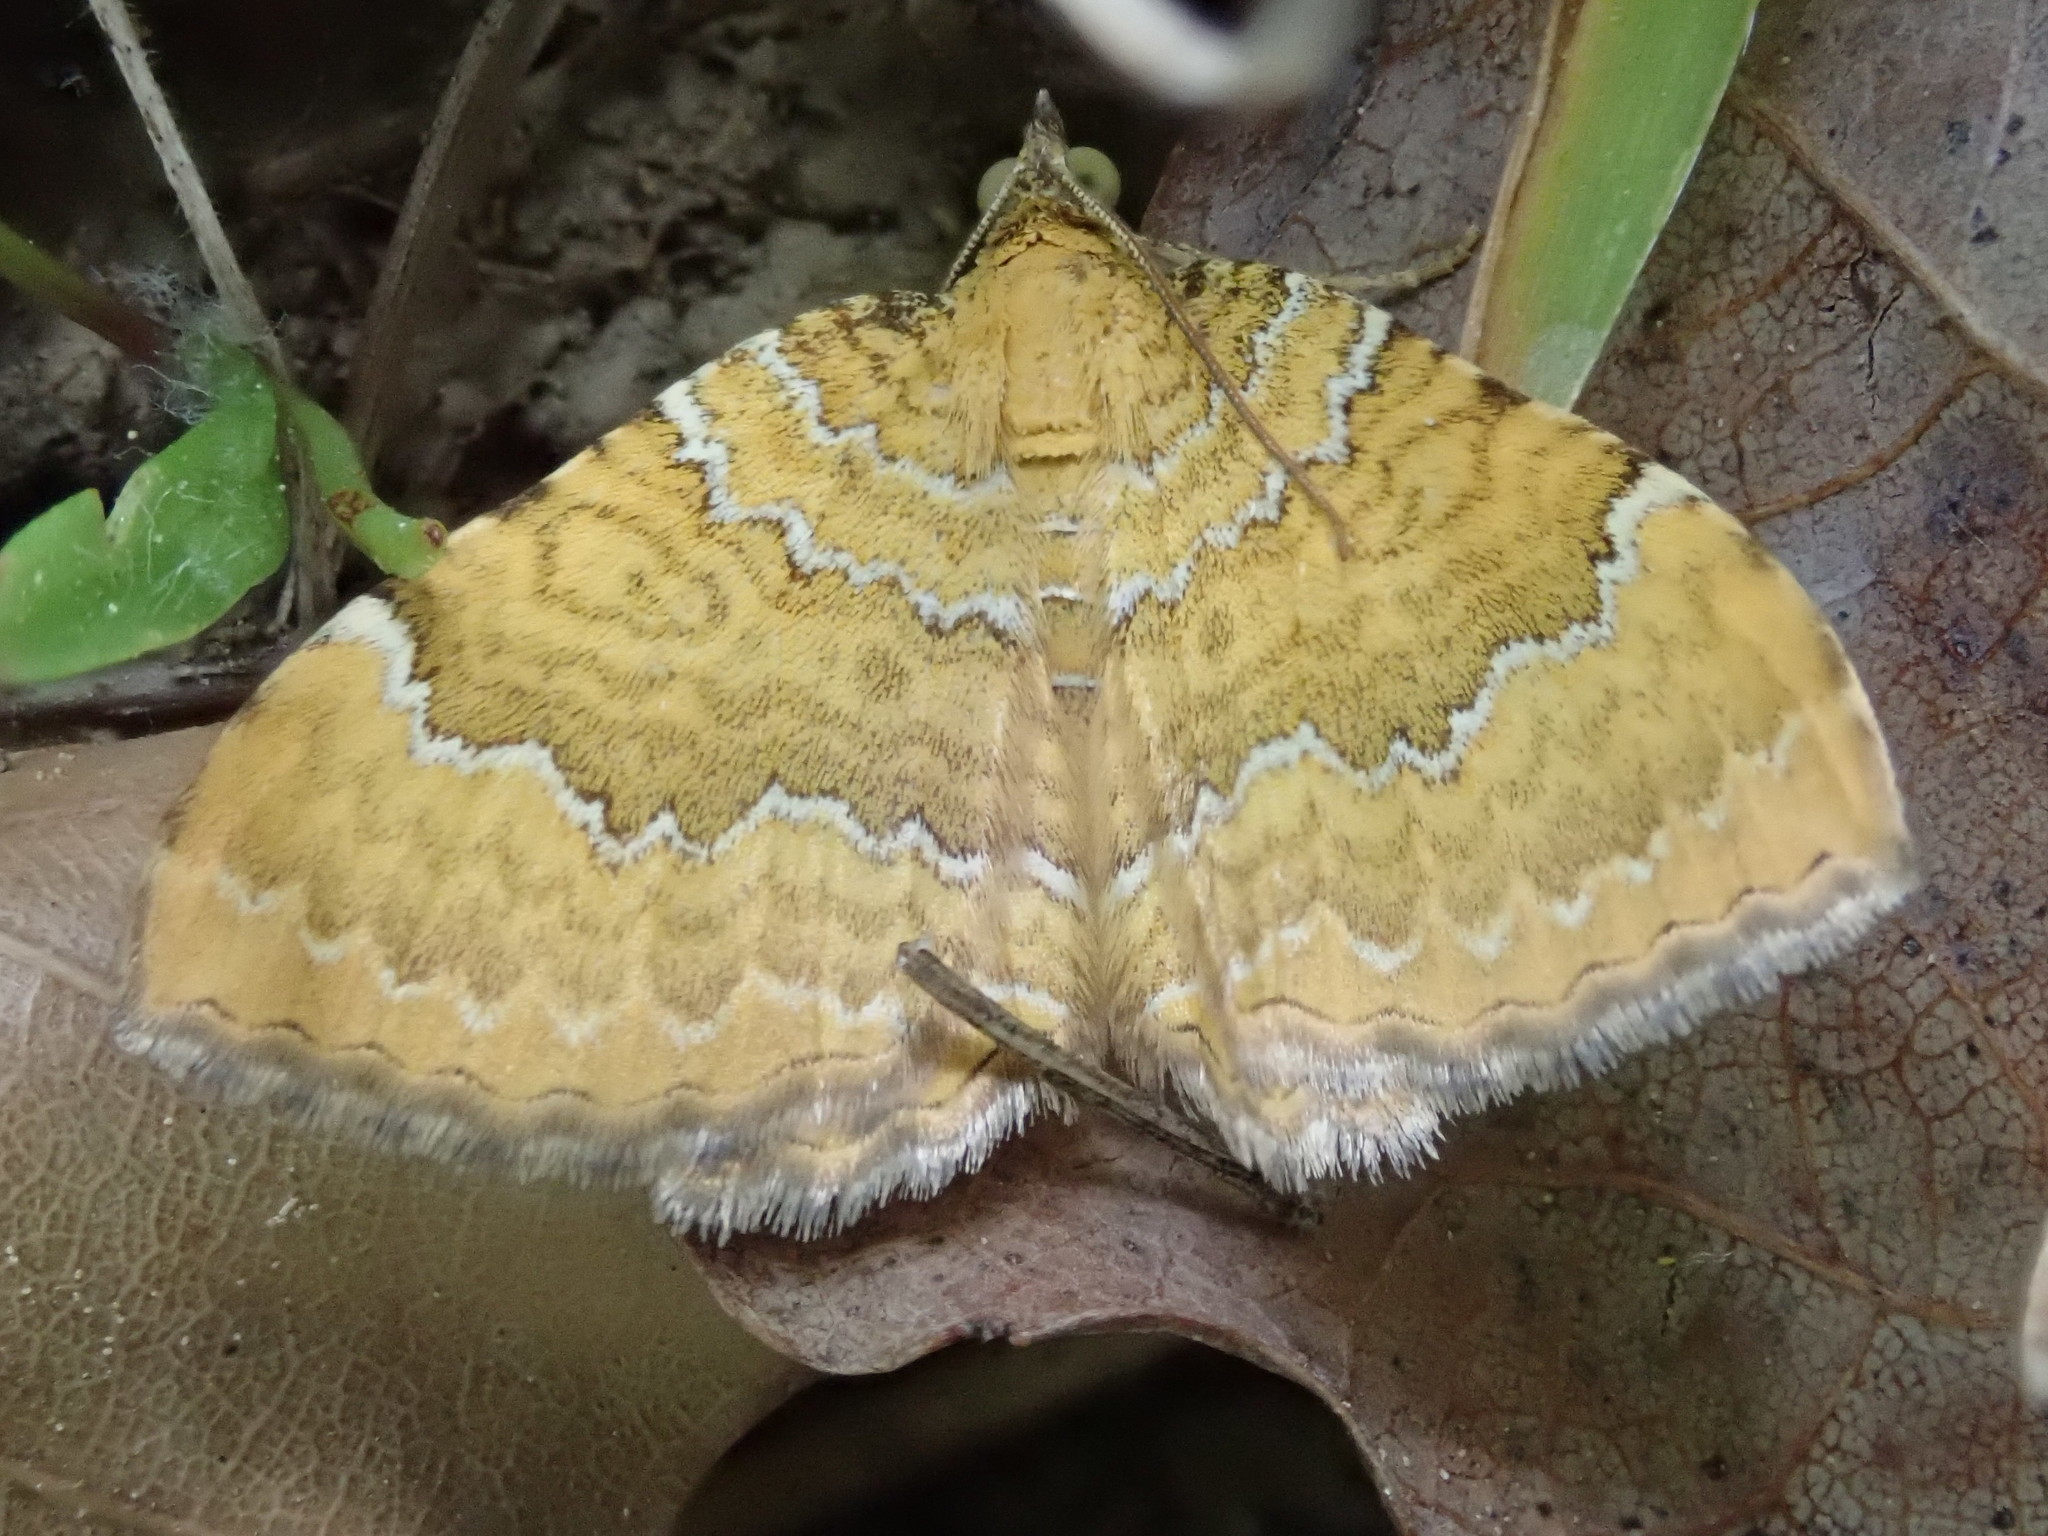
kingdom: Animalia
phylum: Arthropoda
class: Insecta
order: Lepidoptera
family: Geometridae
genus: Camptogramma
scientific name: Camptogramma bilineata
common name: Yellow shell
